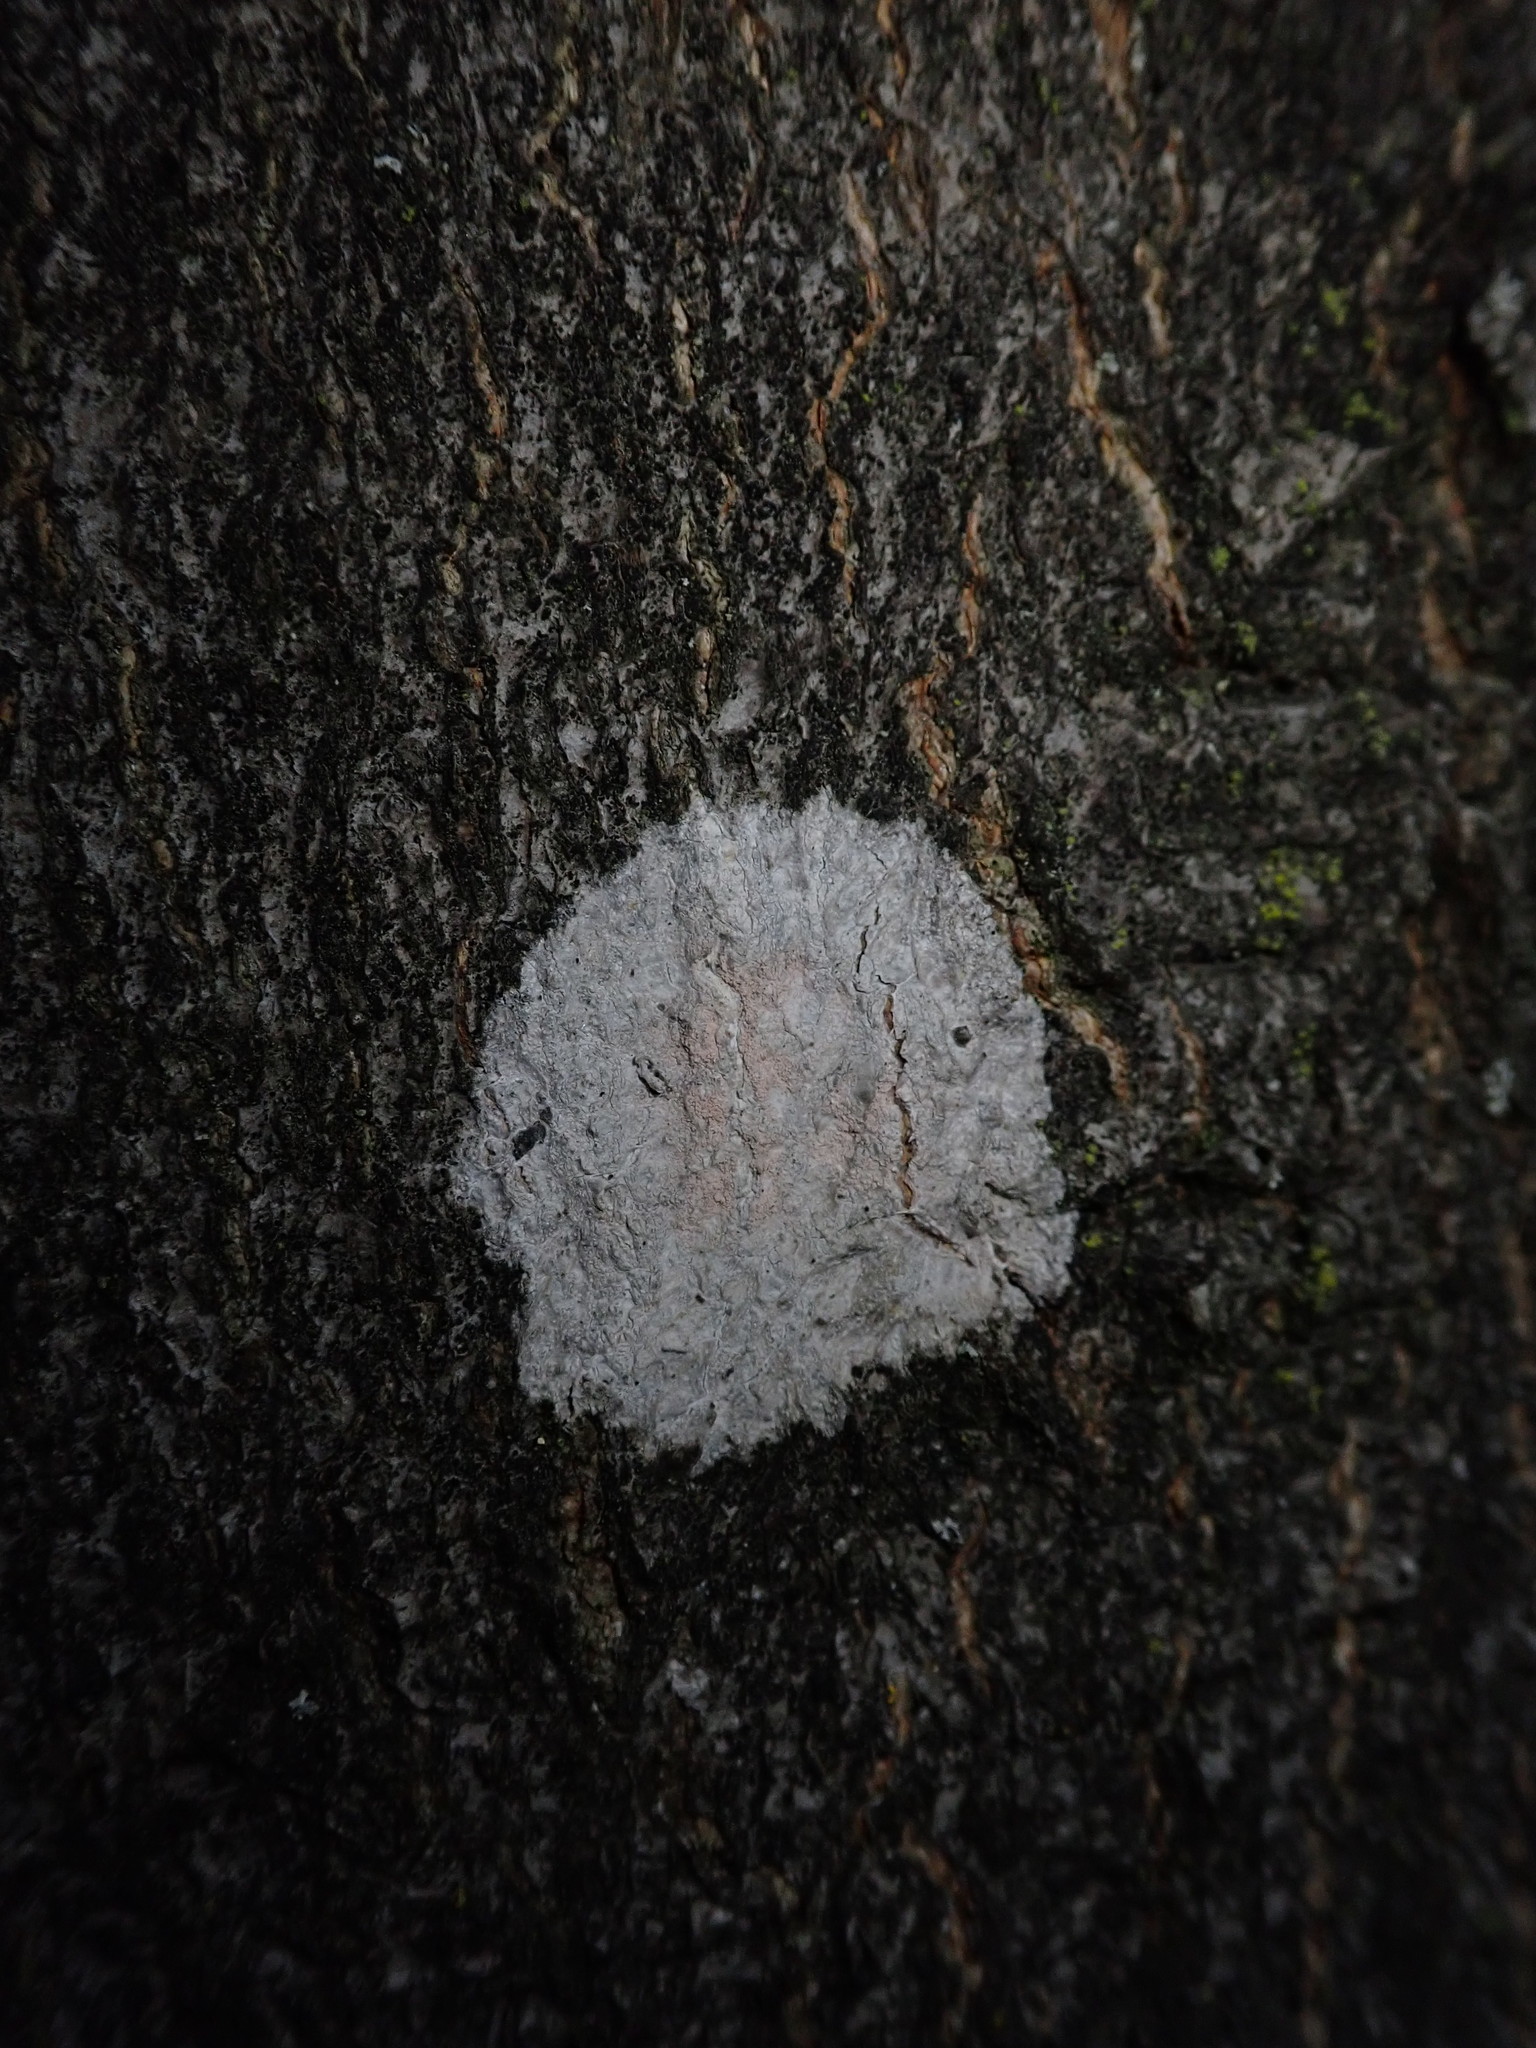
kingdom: Fungi
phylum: Ascomycota
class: Lecanoromycetes
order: Ostropales
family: Phlyctidaceae
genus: Phlyctis
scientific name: Phlyctis argena
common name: Whitewash lichen
